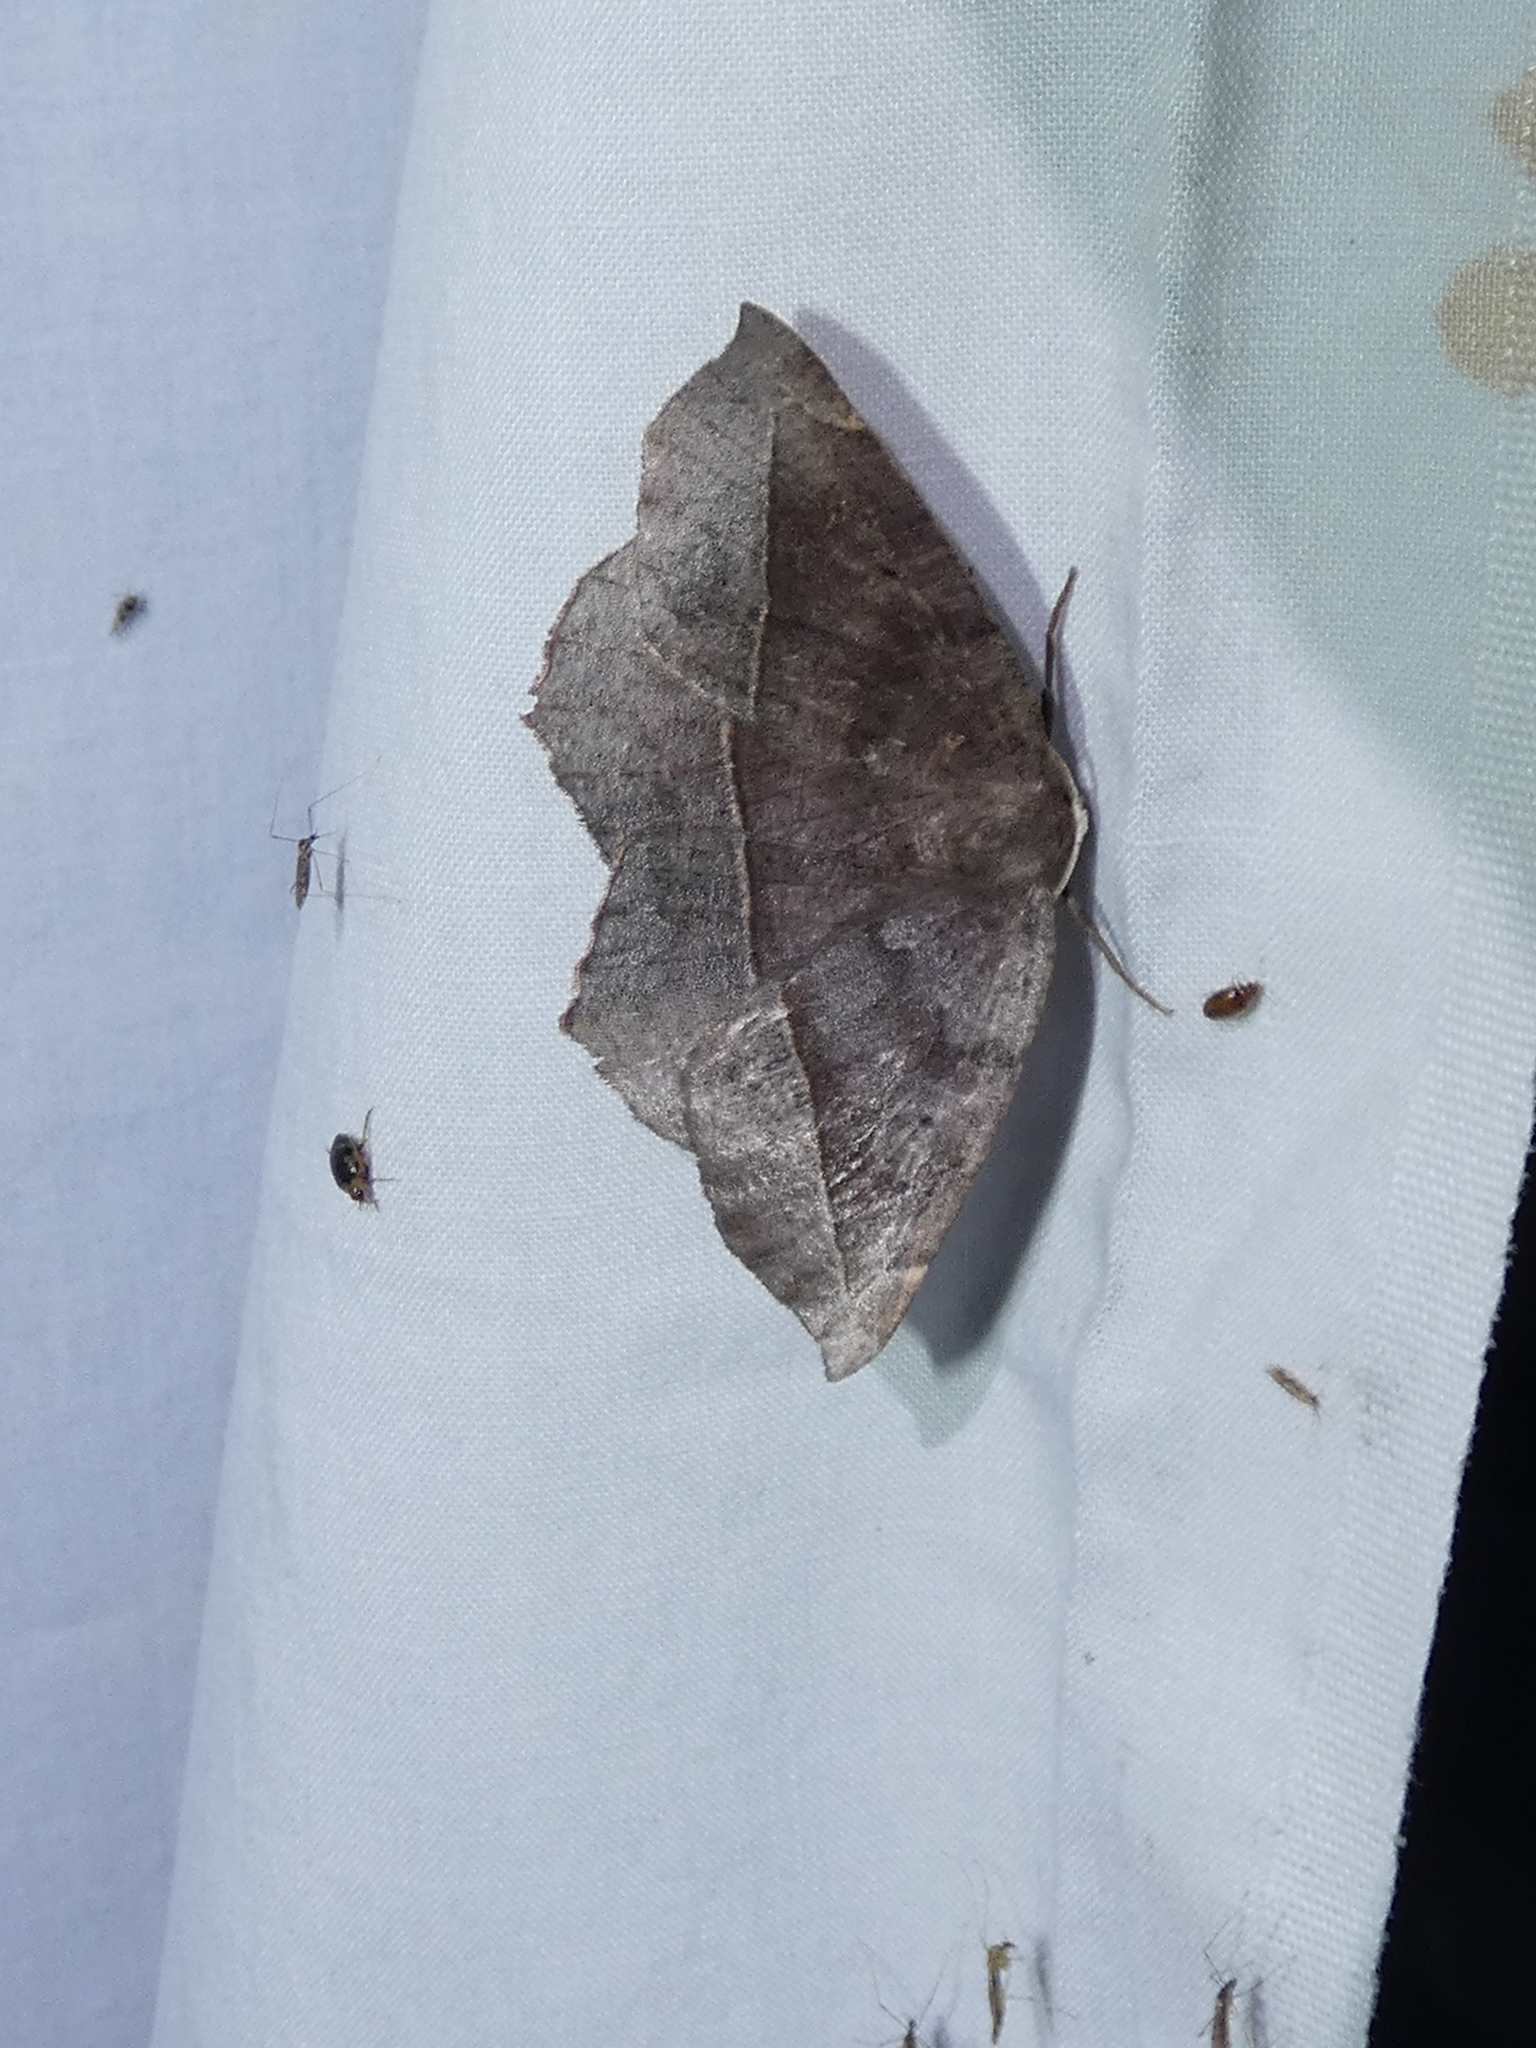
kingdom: Animalia
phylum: Arthropoda
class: Insecta
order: Lepidoptera
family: Geometridae
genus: Eutrapela
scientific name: Eutrapela clemataria
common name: Curved-toothed geometer
